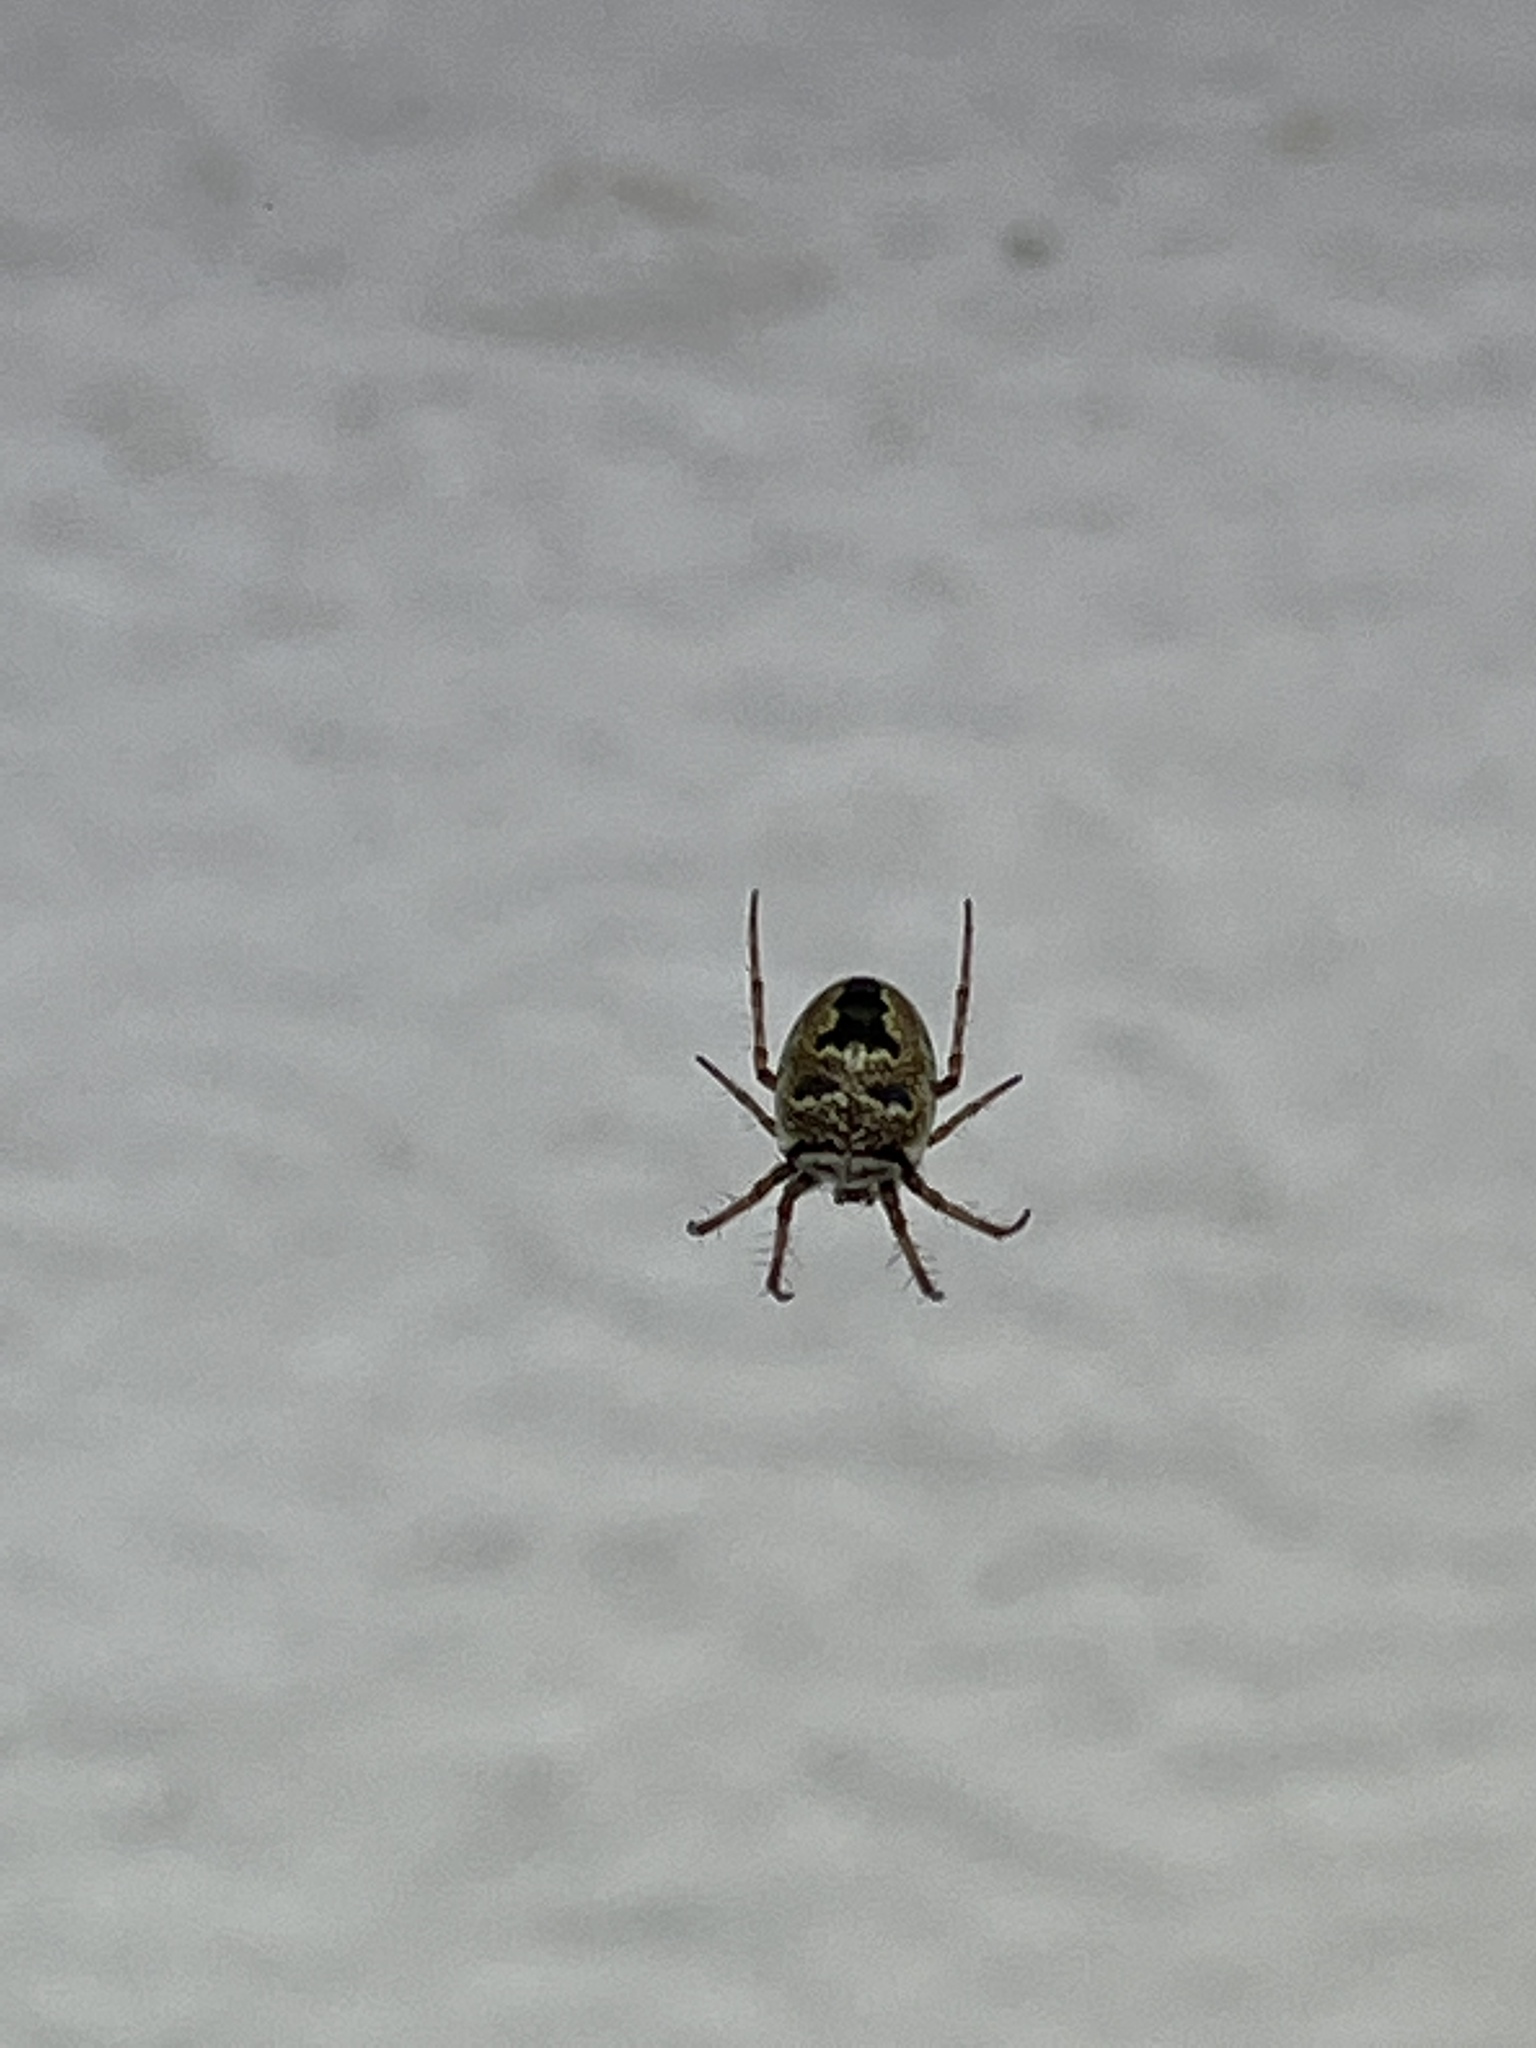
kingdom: Animalia
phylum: Arthropoda
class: Arachnida
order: Araneae
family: Araneidae
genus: Zilla
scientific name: Zilla diodia
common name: Zilla diodia
